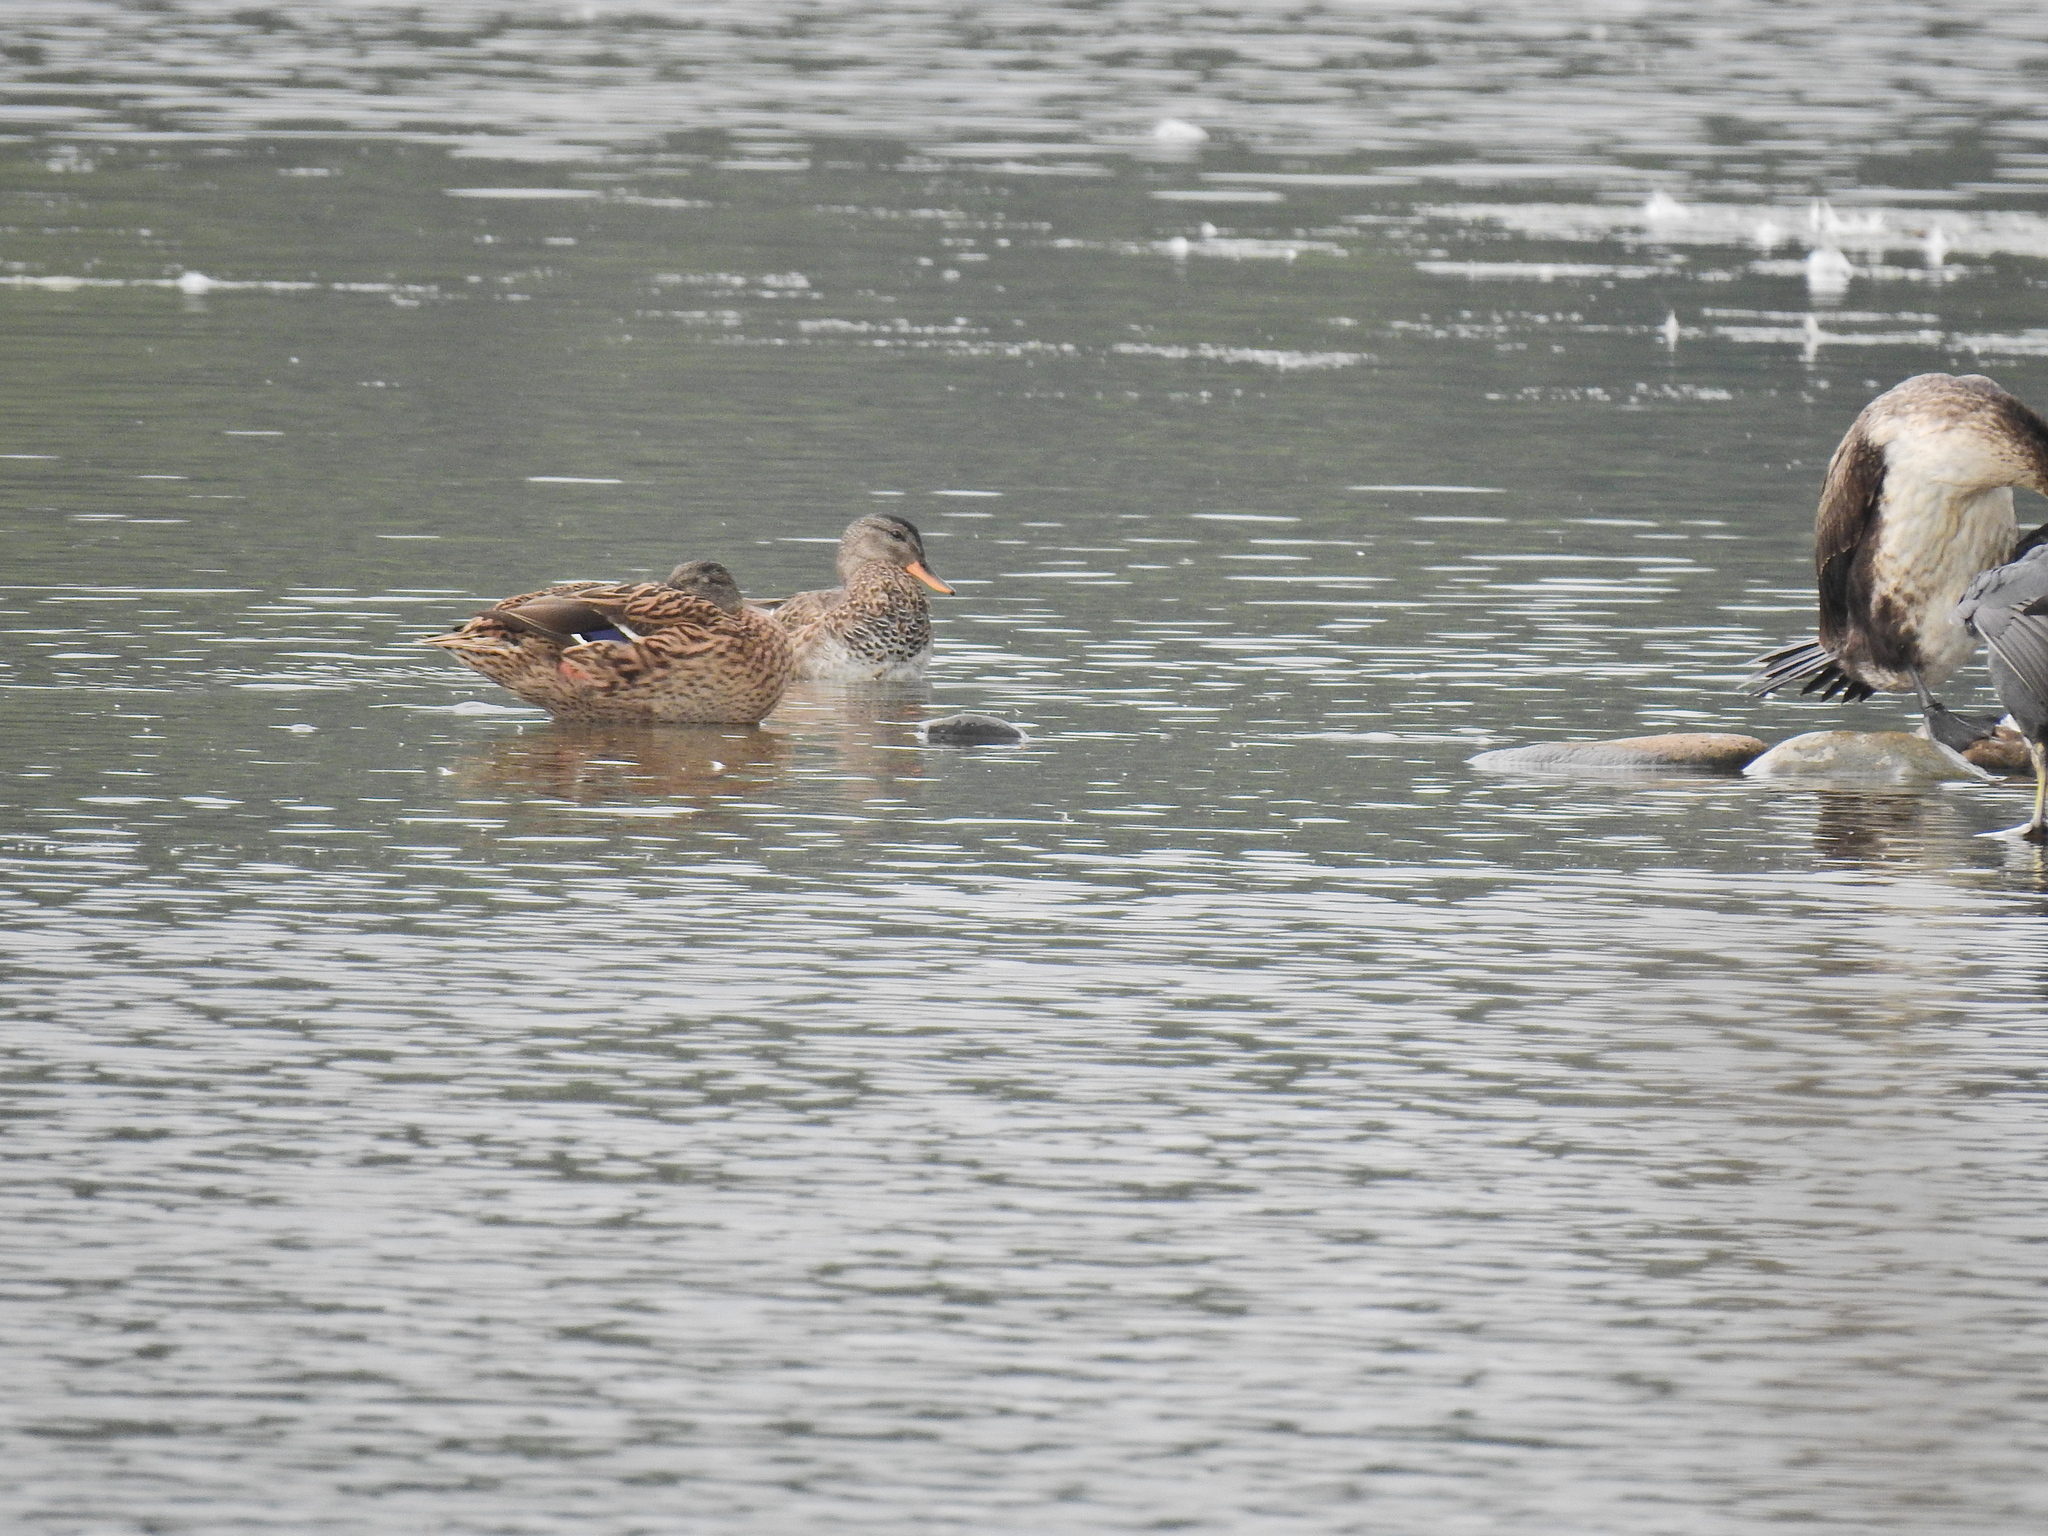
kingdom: Animalia
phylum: Chordata
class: Aves
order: Anseriformes
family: Anatidae
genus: Mareca
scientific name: Mareca strepera
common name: Gadwall
